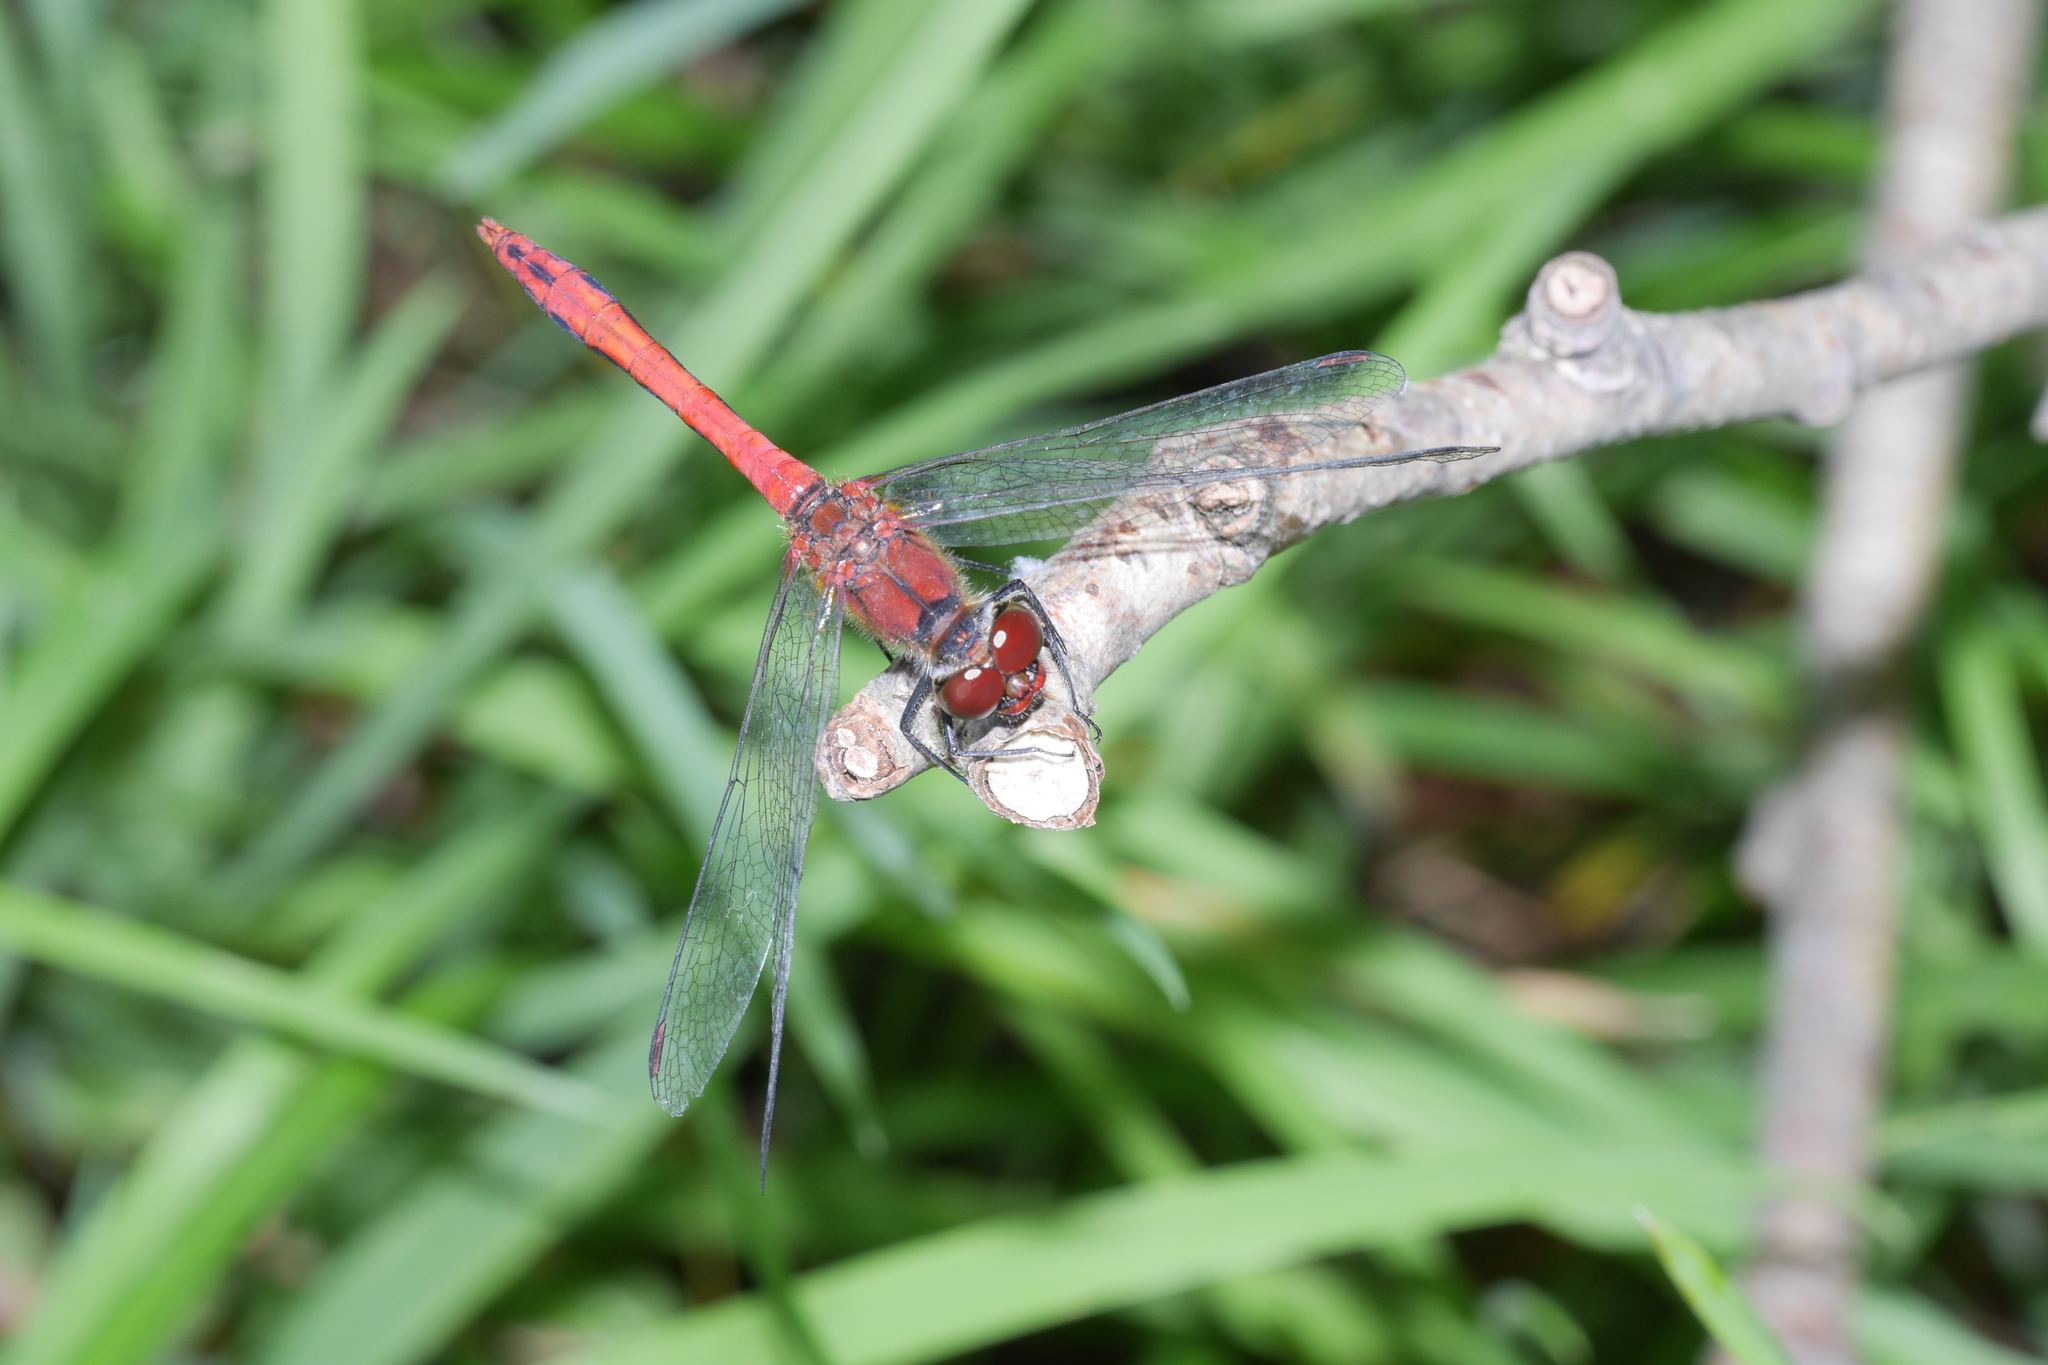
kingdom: Animalia
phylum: Arthropoda
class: Insecta
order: Odonata
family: Libellulidae
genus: Sympetrum
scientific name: Sympetrum sanguineum
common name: Ruddy darter
